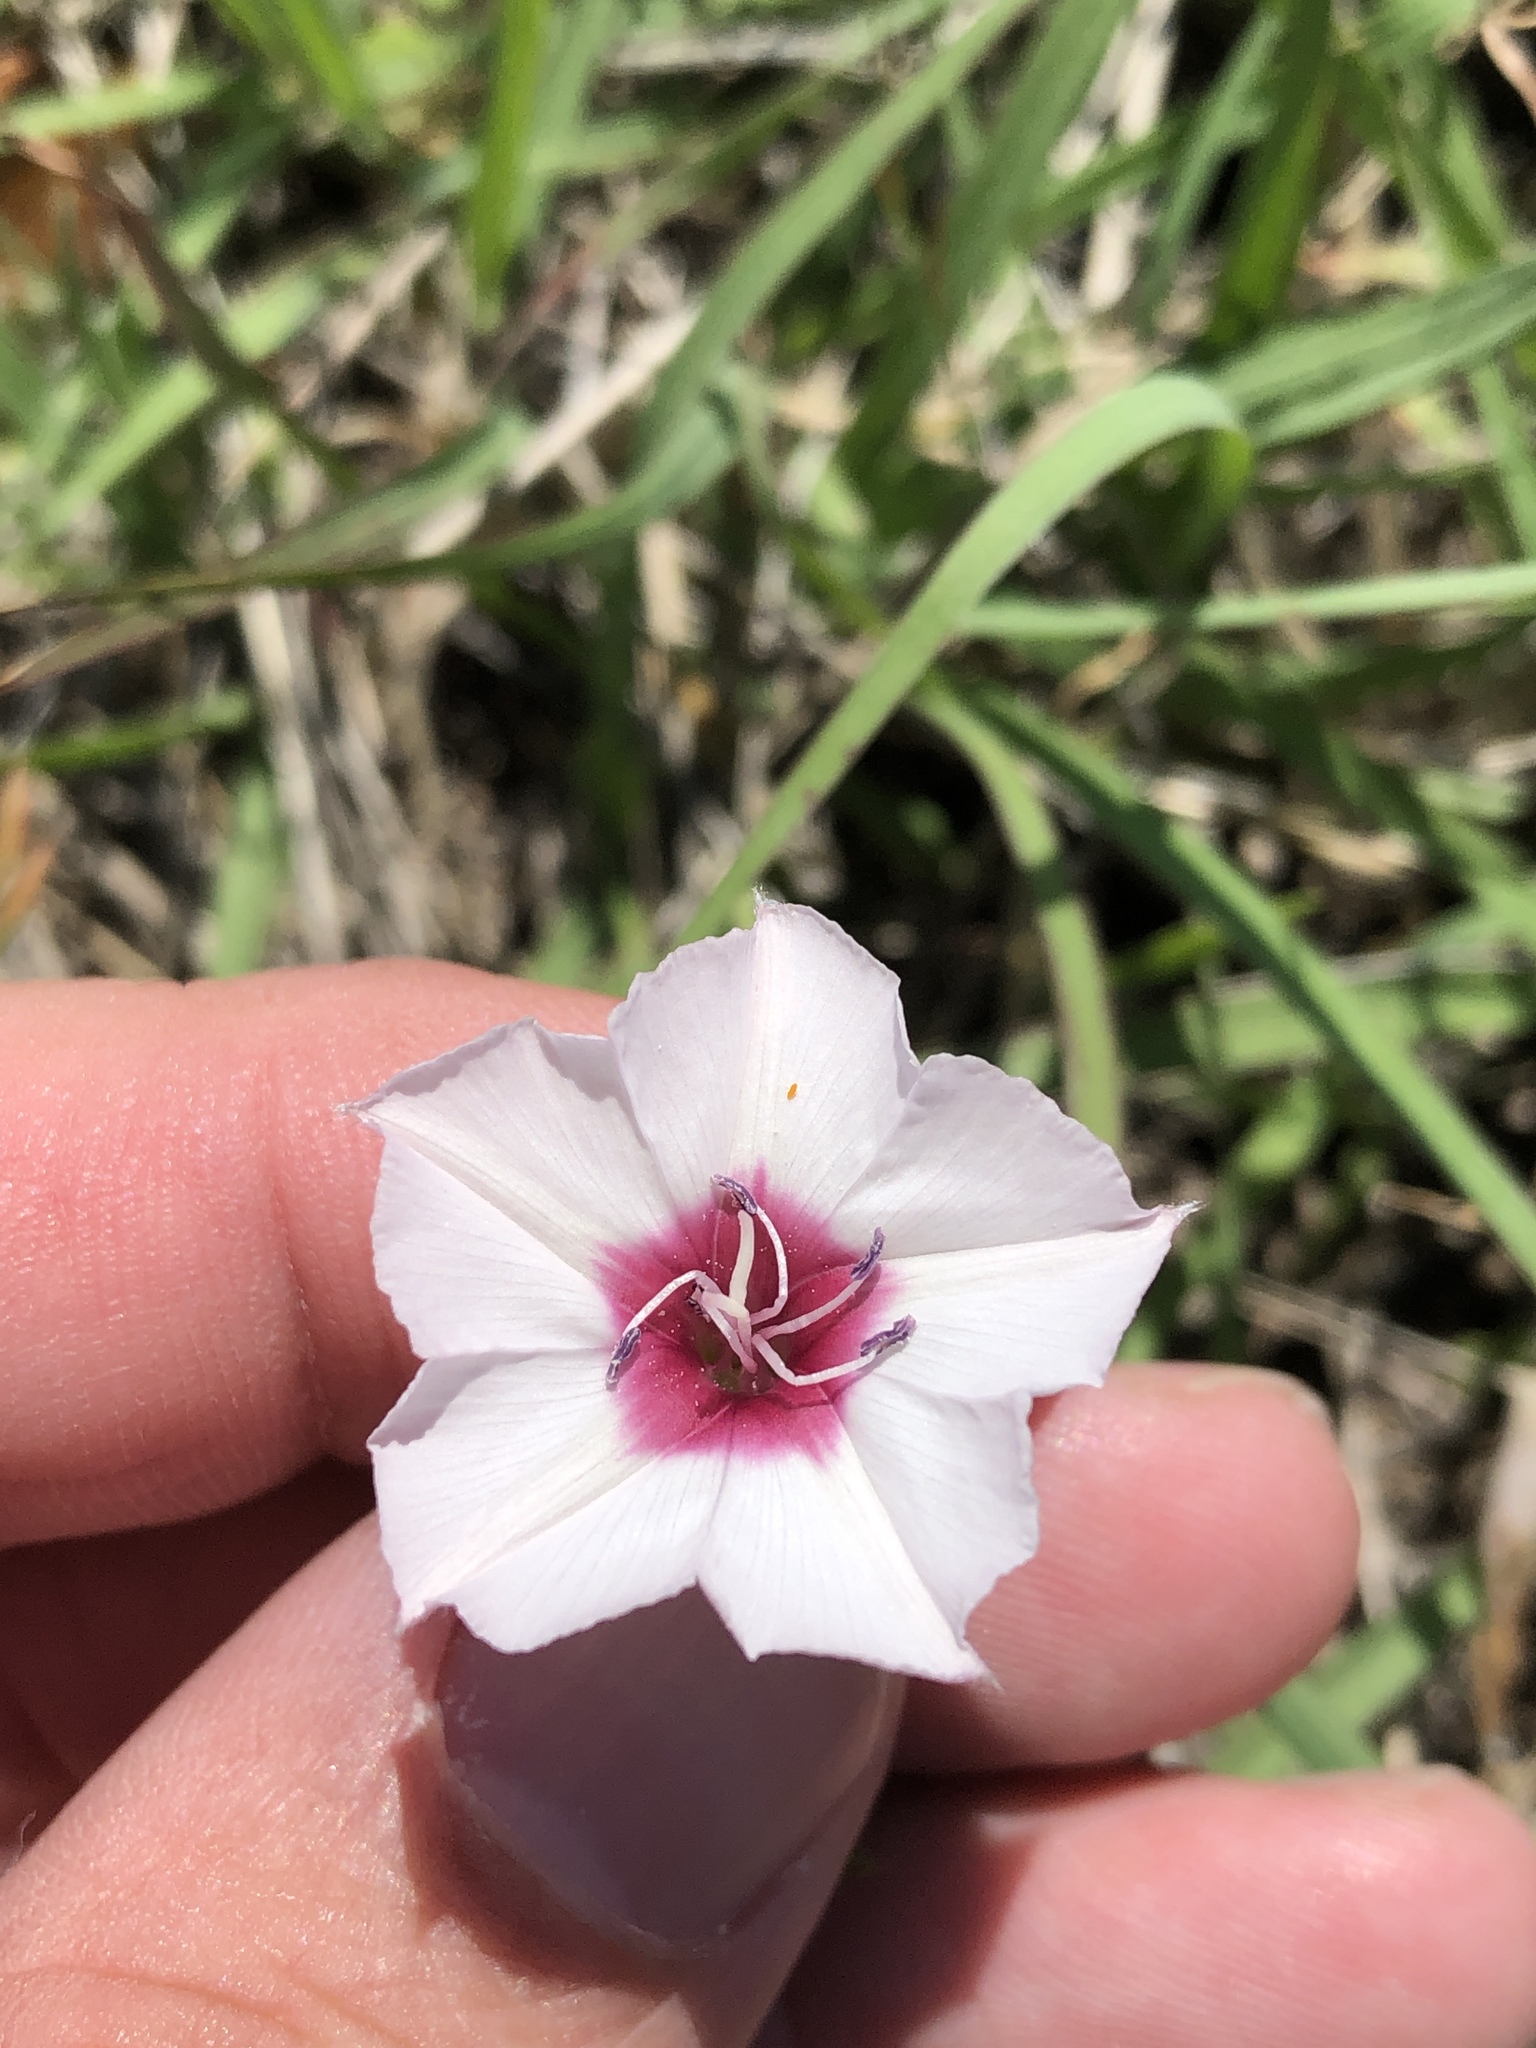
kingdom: Plantae
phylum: Tracheophyta
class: Magnoliopsida
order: Solanales
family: Convolvulaceae
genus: Convolvulus
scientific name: Convolvulus equitans
